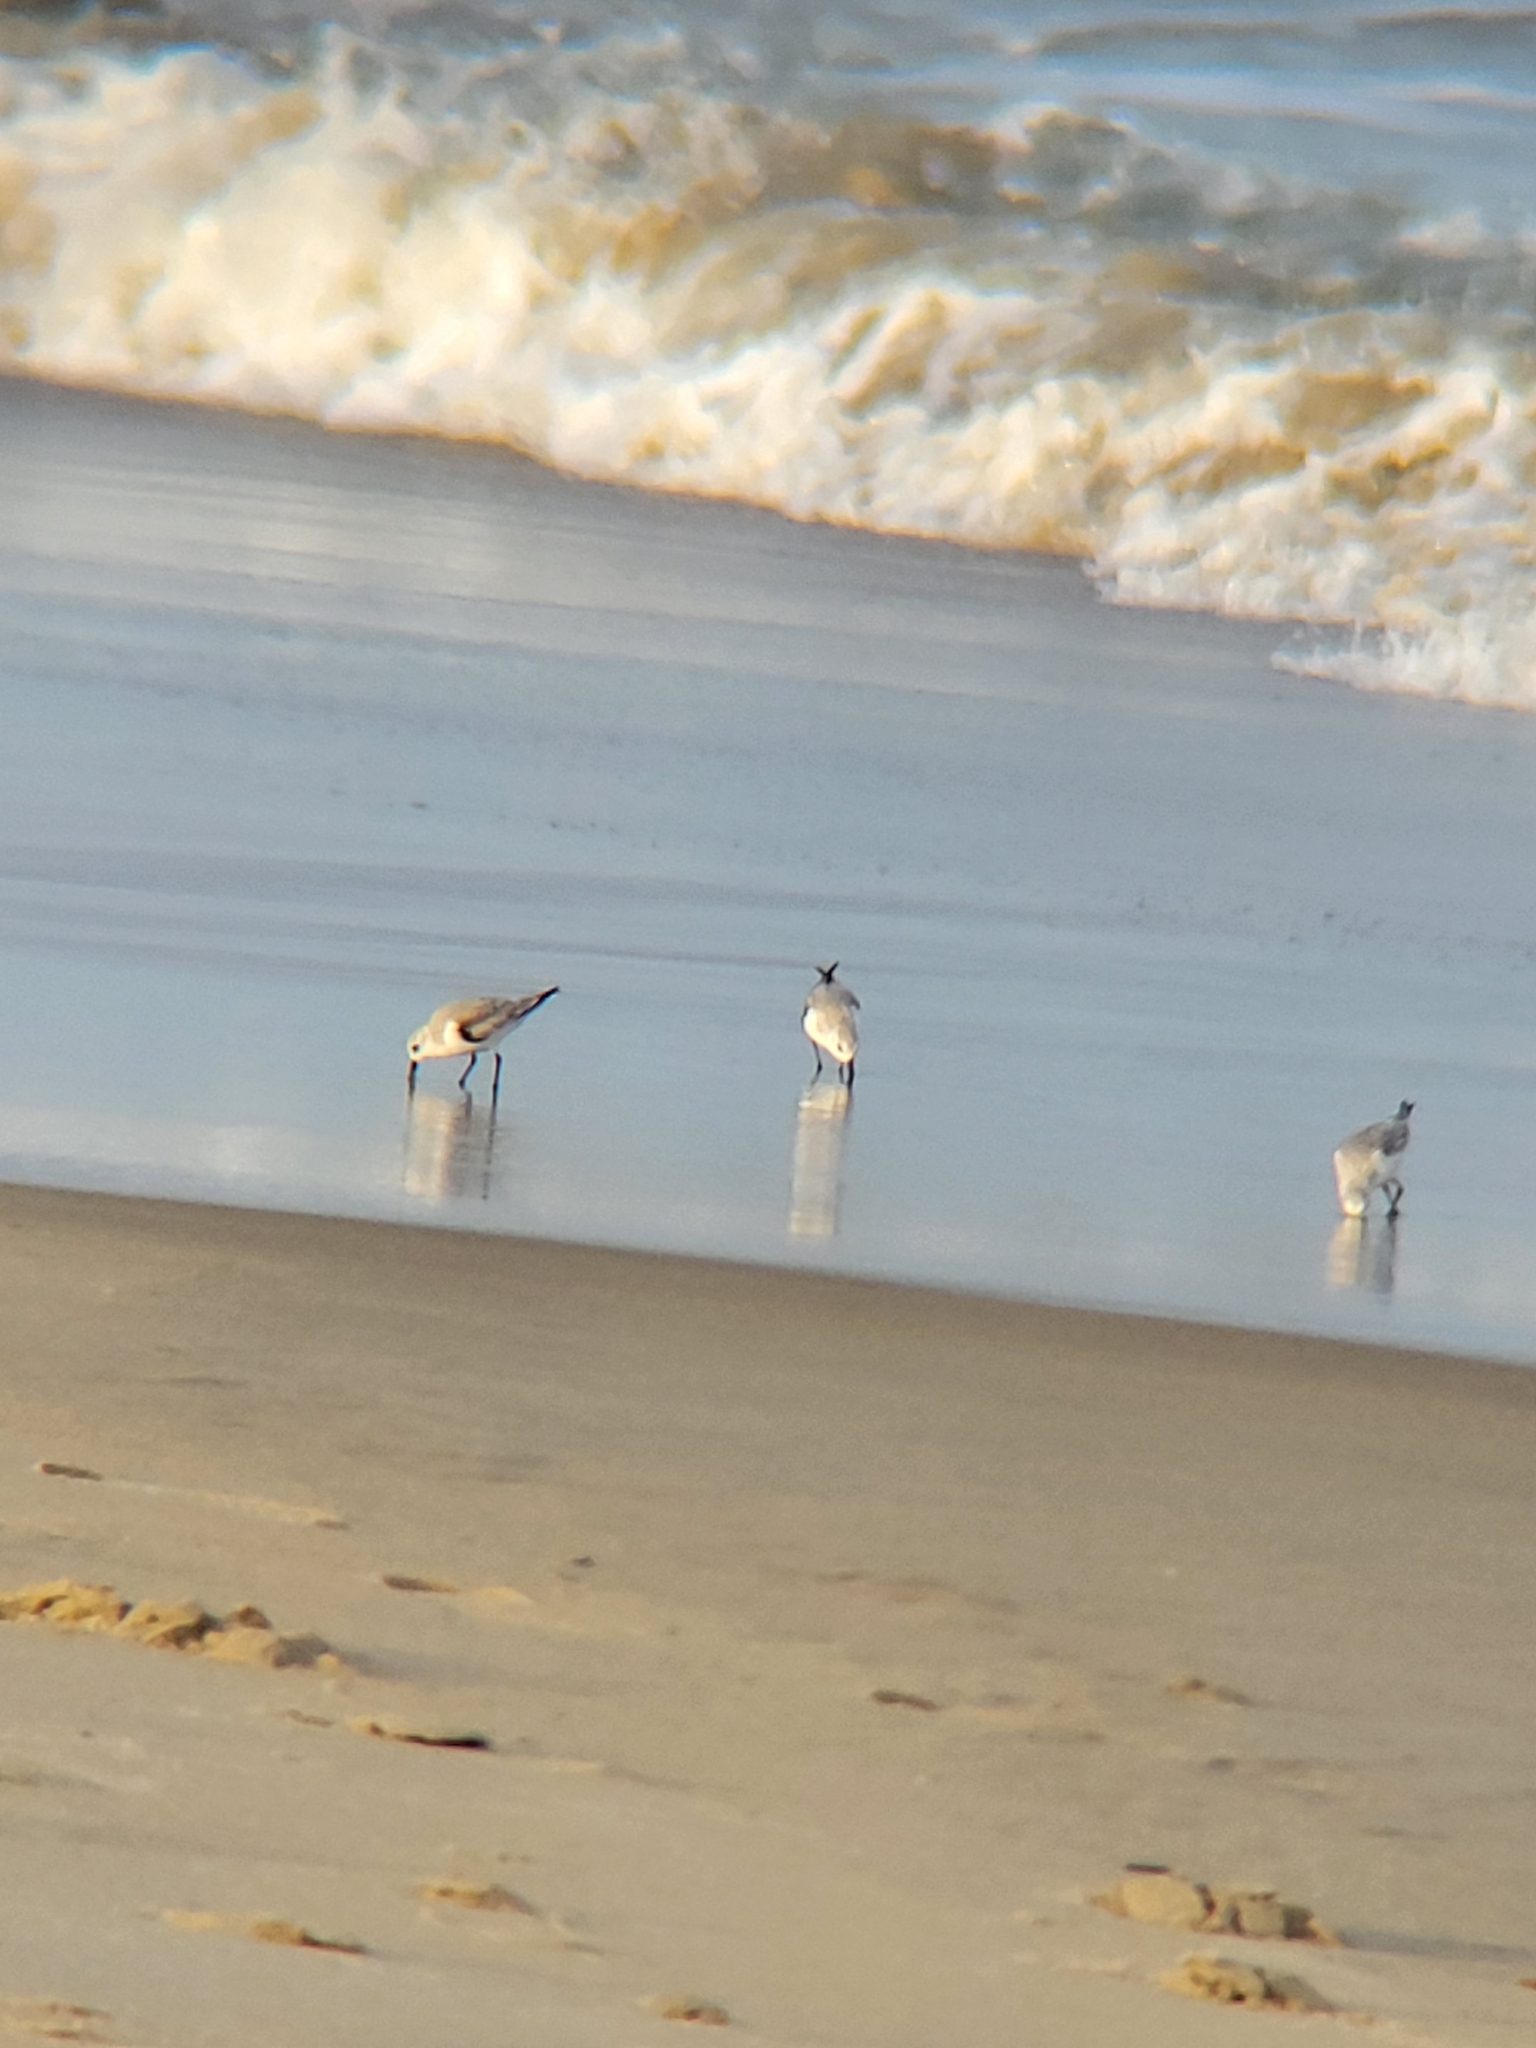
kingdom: Animalia
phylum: Chordata
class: Aves
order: Charadriiformes
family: Scolopacidae
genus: Calidris
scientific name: Calidris alba
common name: Sanderling
